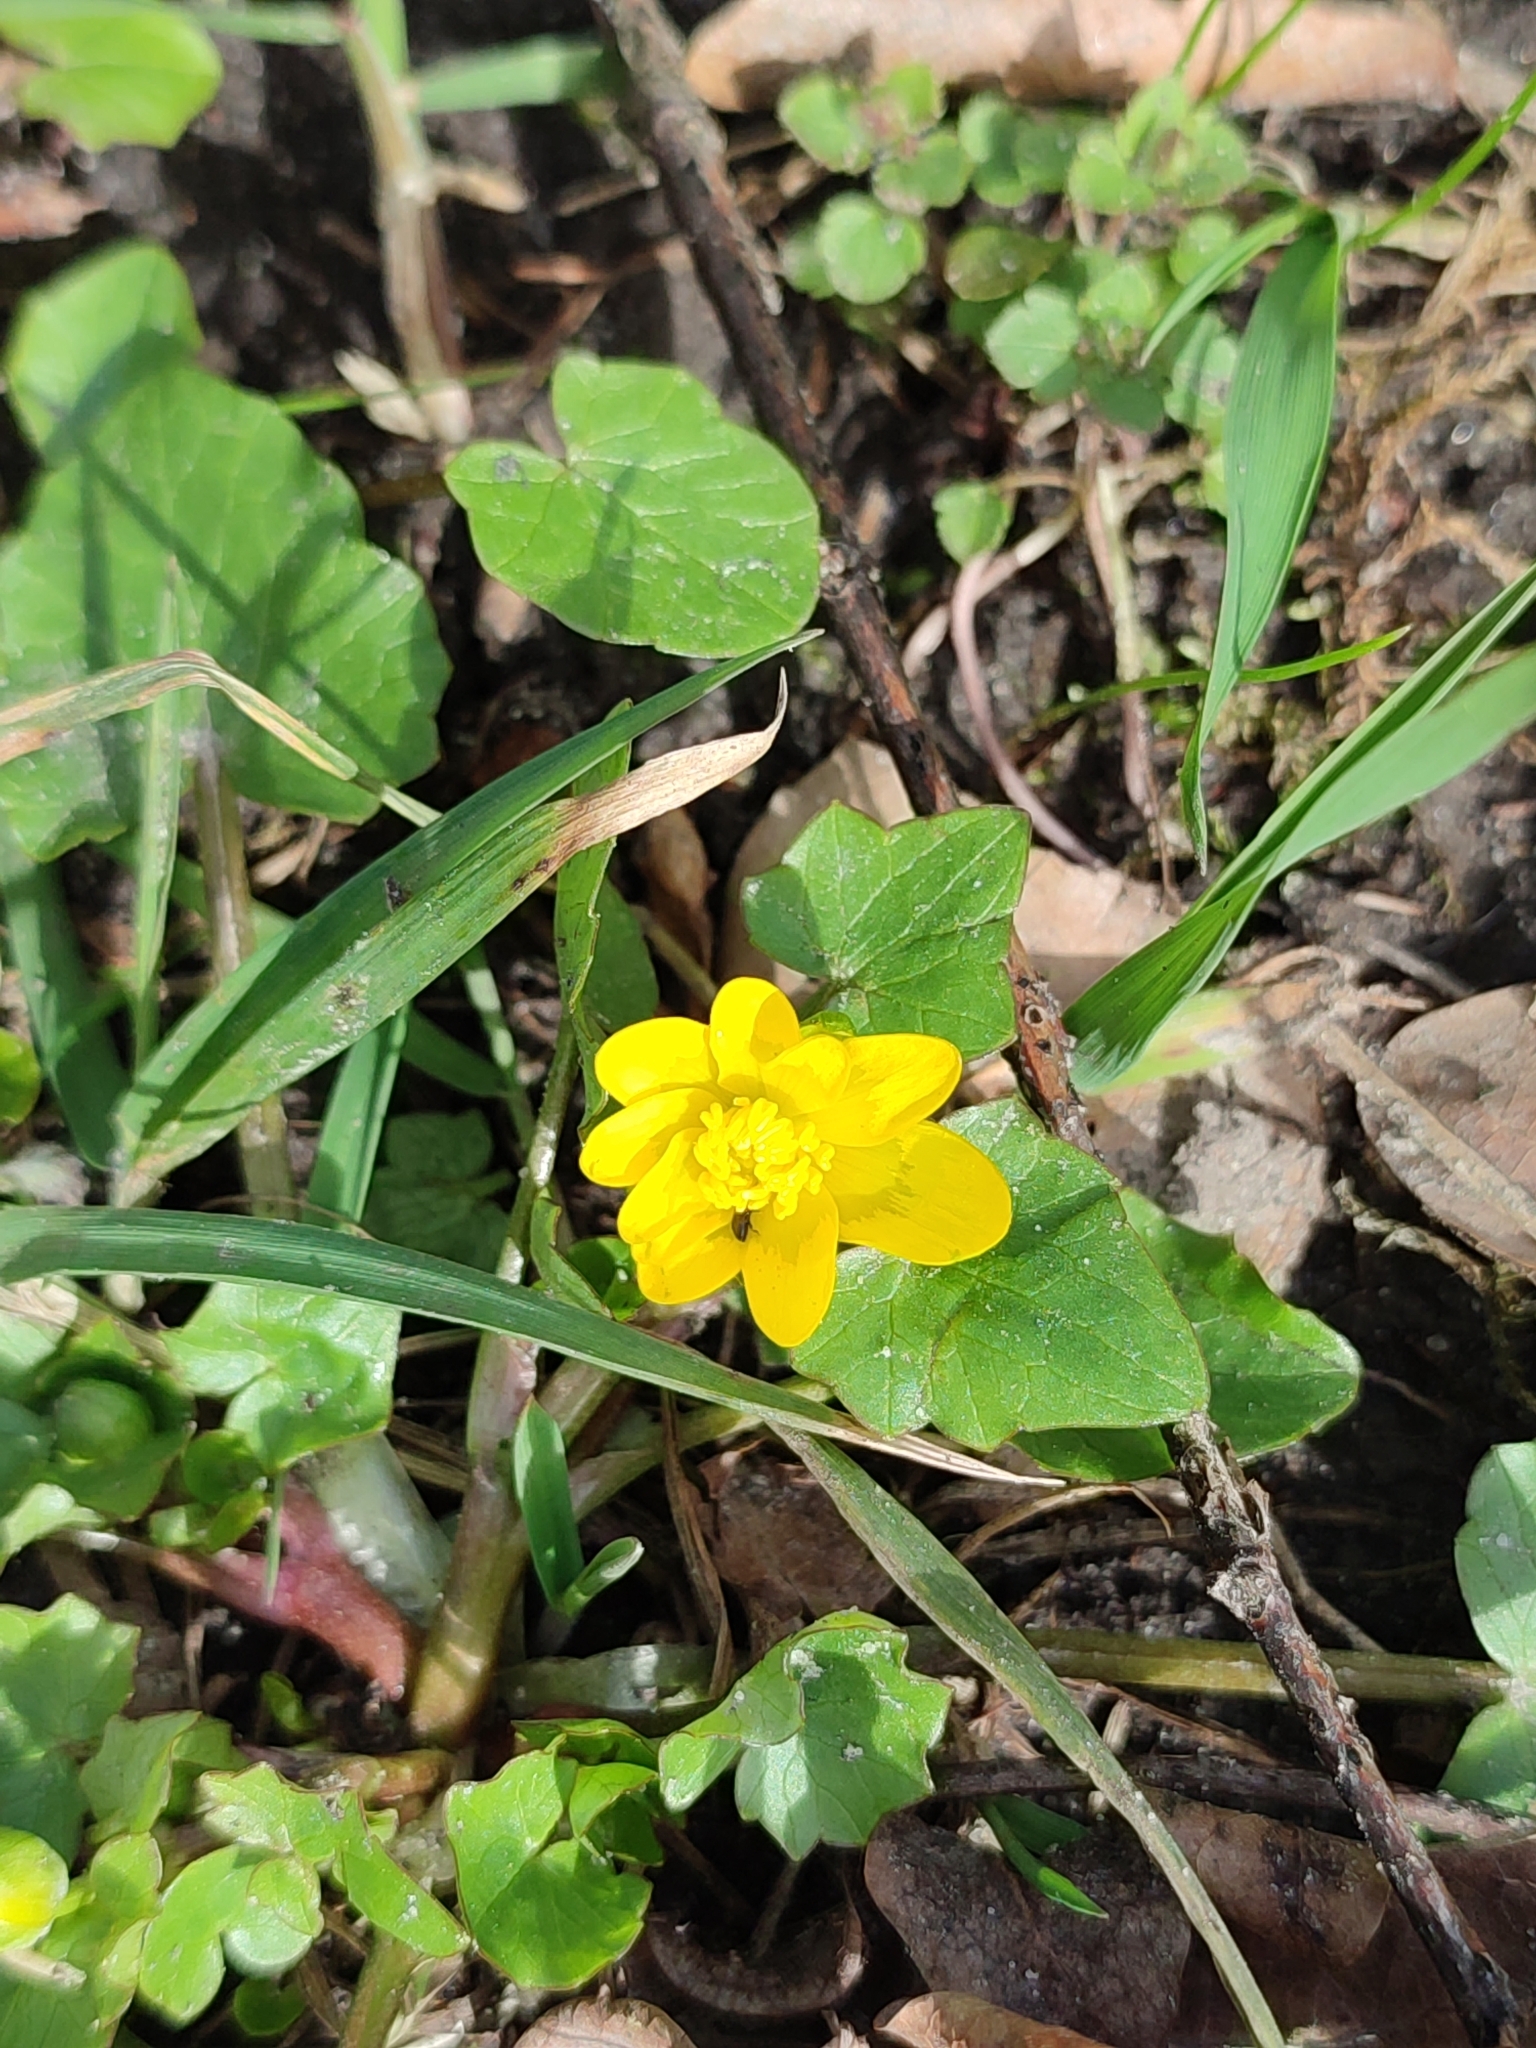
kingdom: Plantae
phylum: Tracheophyta
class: Magnoliopsida
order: Ranunculales
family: Ranunculaceae
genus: Ficaria
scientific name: Ficaria verna
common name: Lesser celandine
